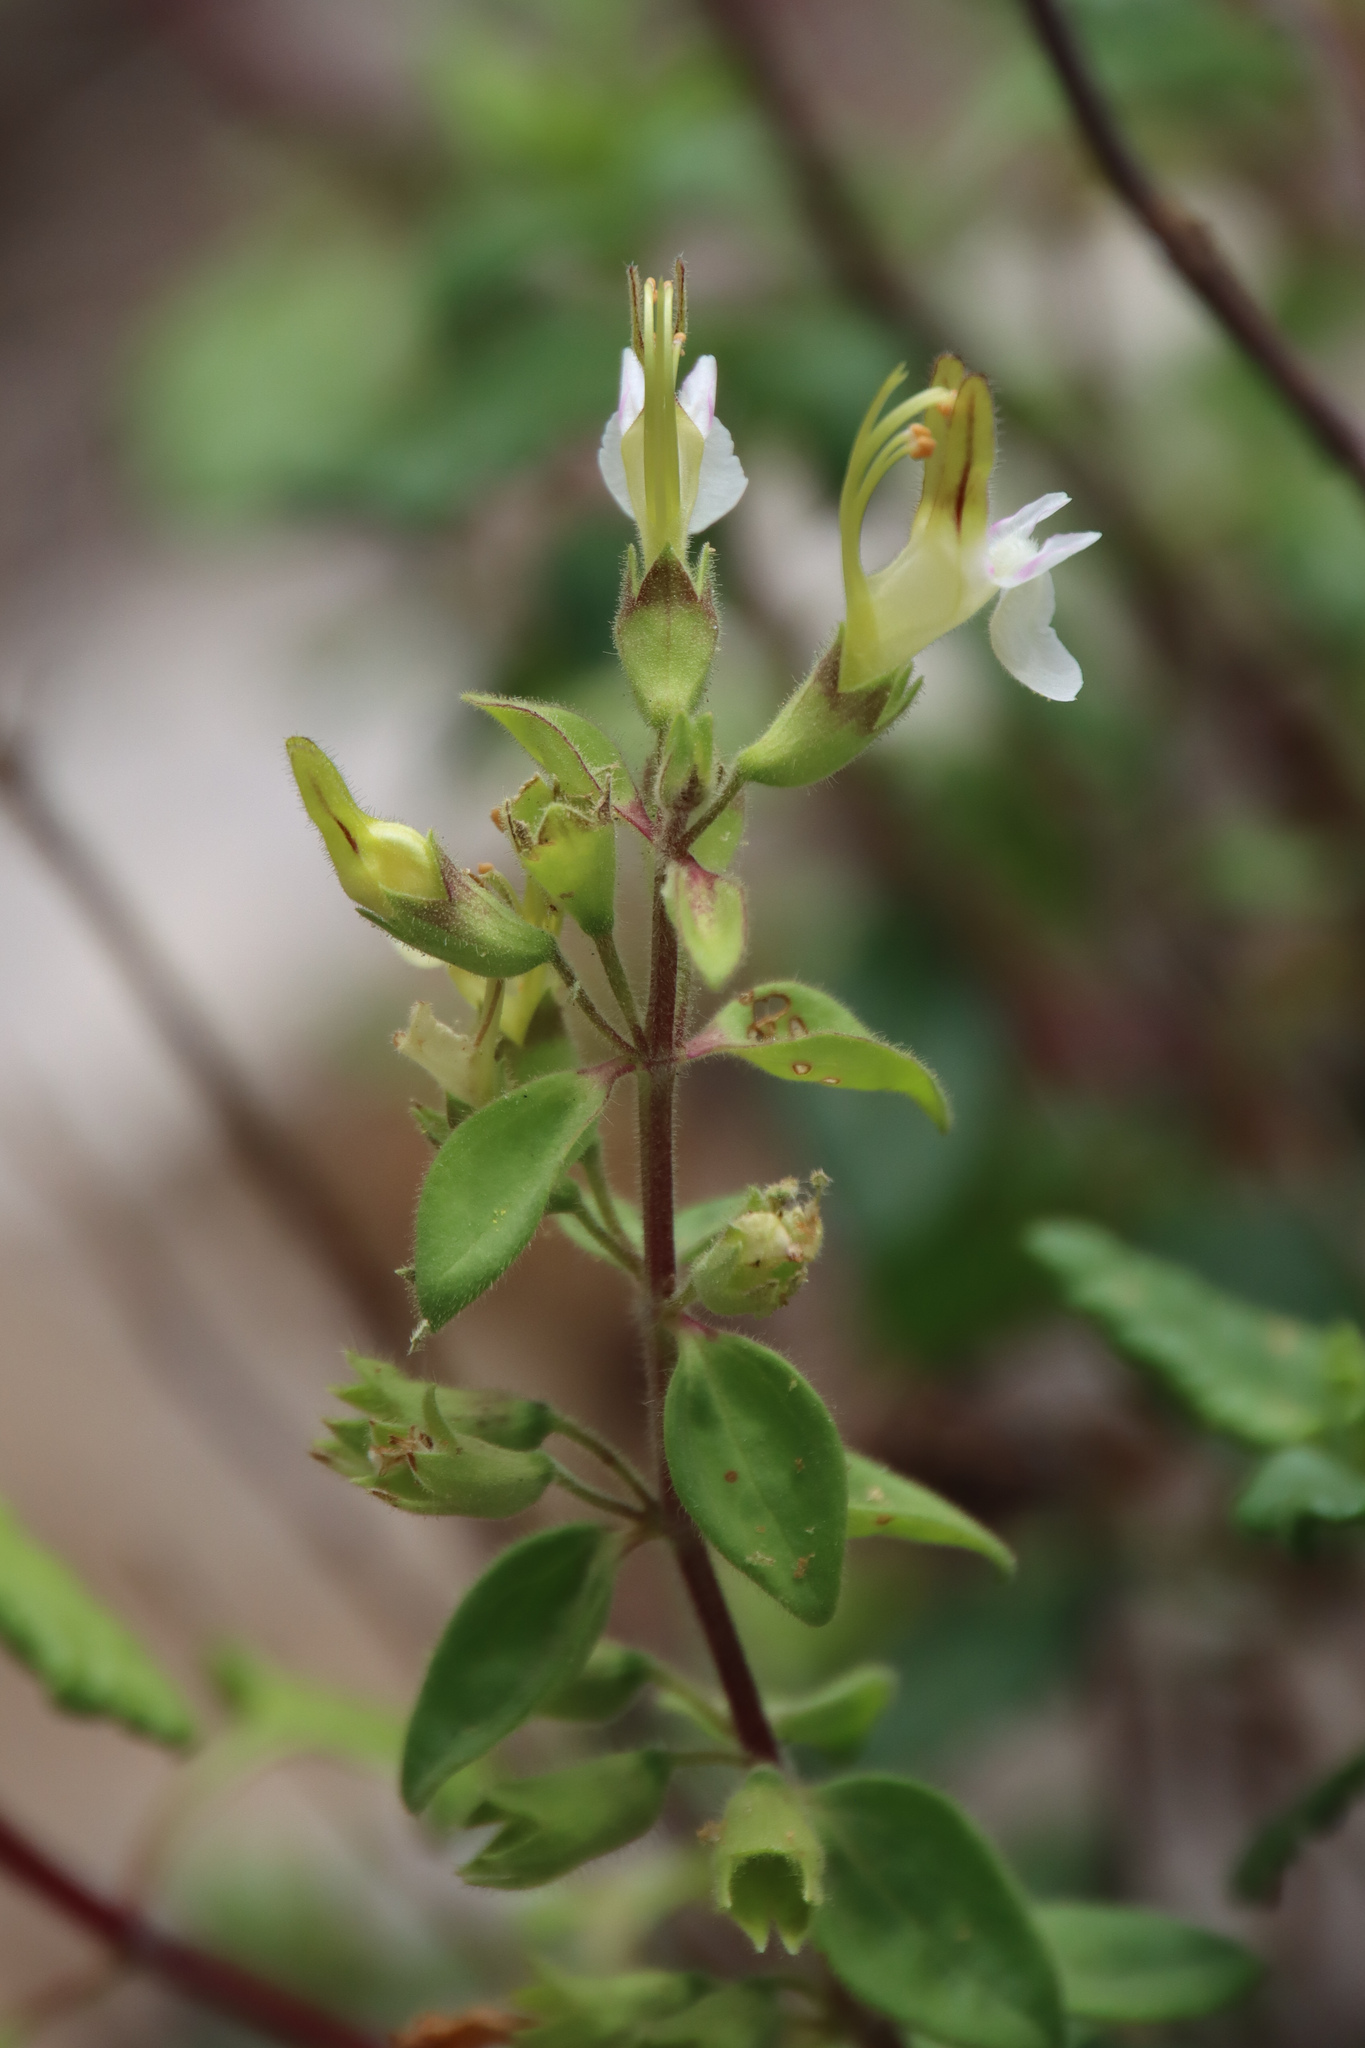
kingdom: Plantae
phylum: Tracheophyta
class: Magnoliopsida
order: Lamiales
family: Lamiaceae
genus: Teucrium
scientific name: Teucrium flavum
